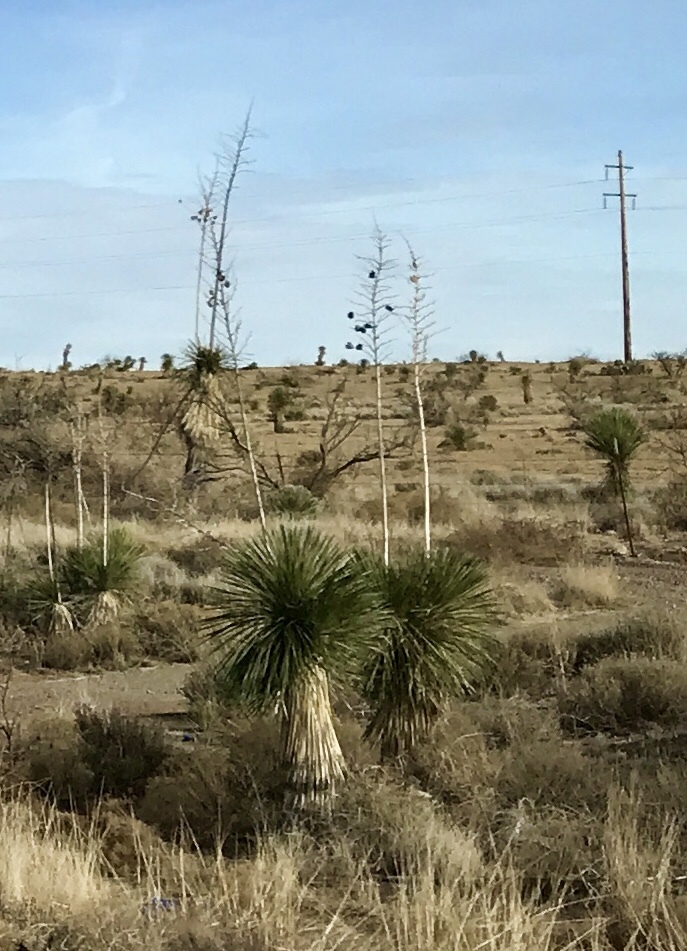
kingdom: Plantae
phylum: Tracheophyta
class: Liliopsida
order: Asparagales
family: Asparagaceae
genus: Yucca
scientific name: Yucca elata
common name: Palmella
